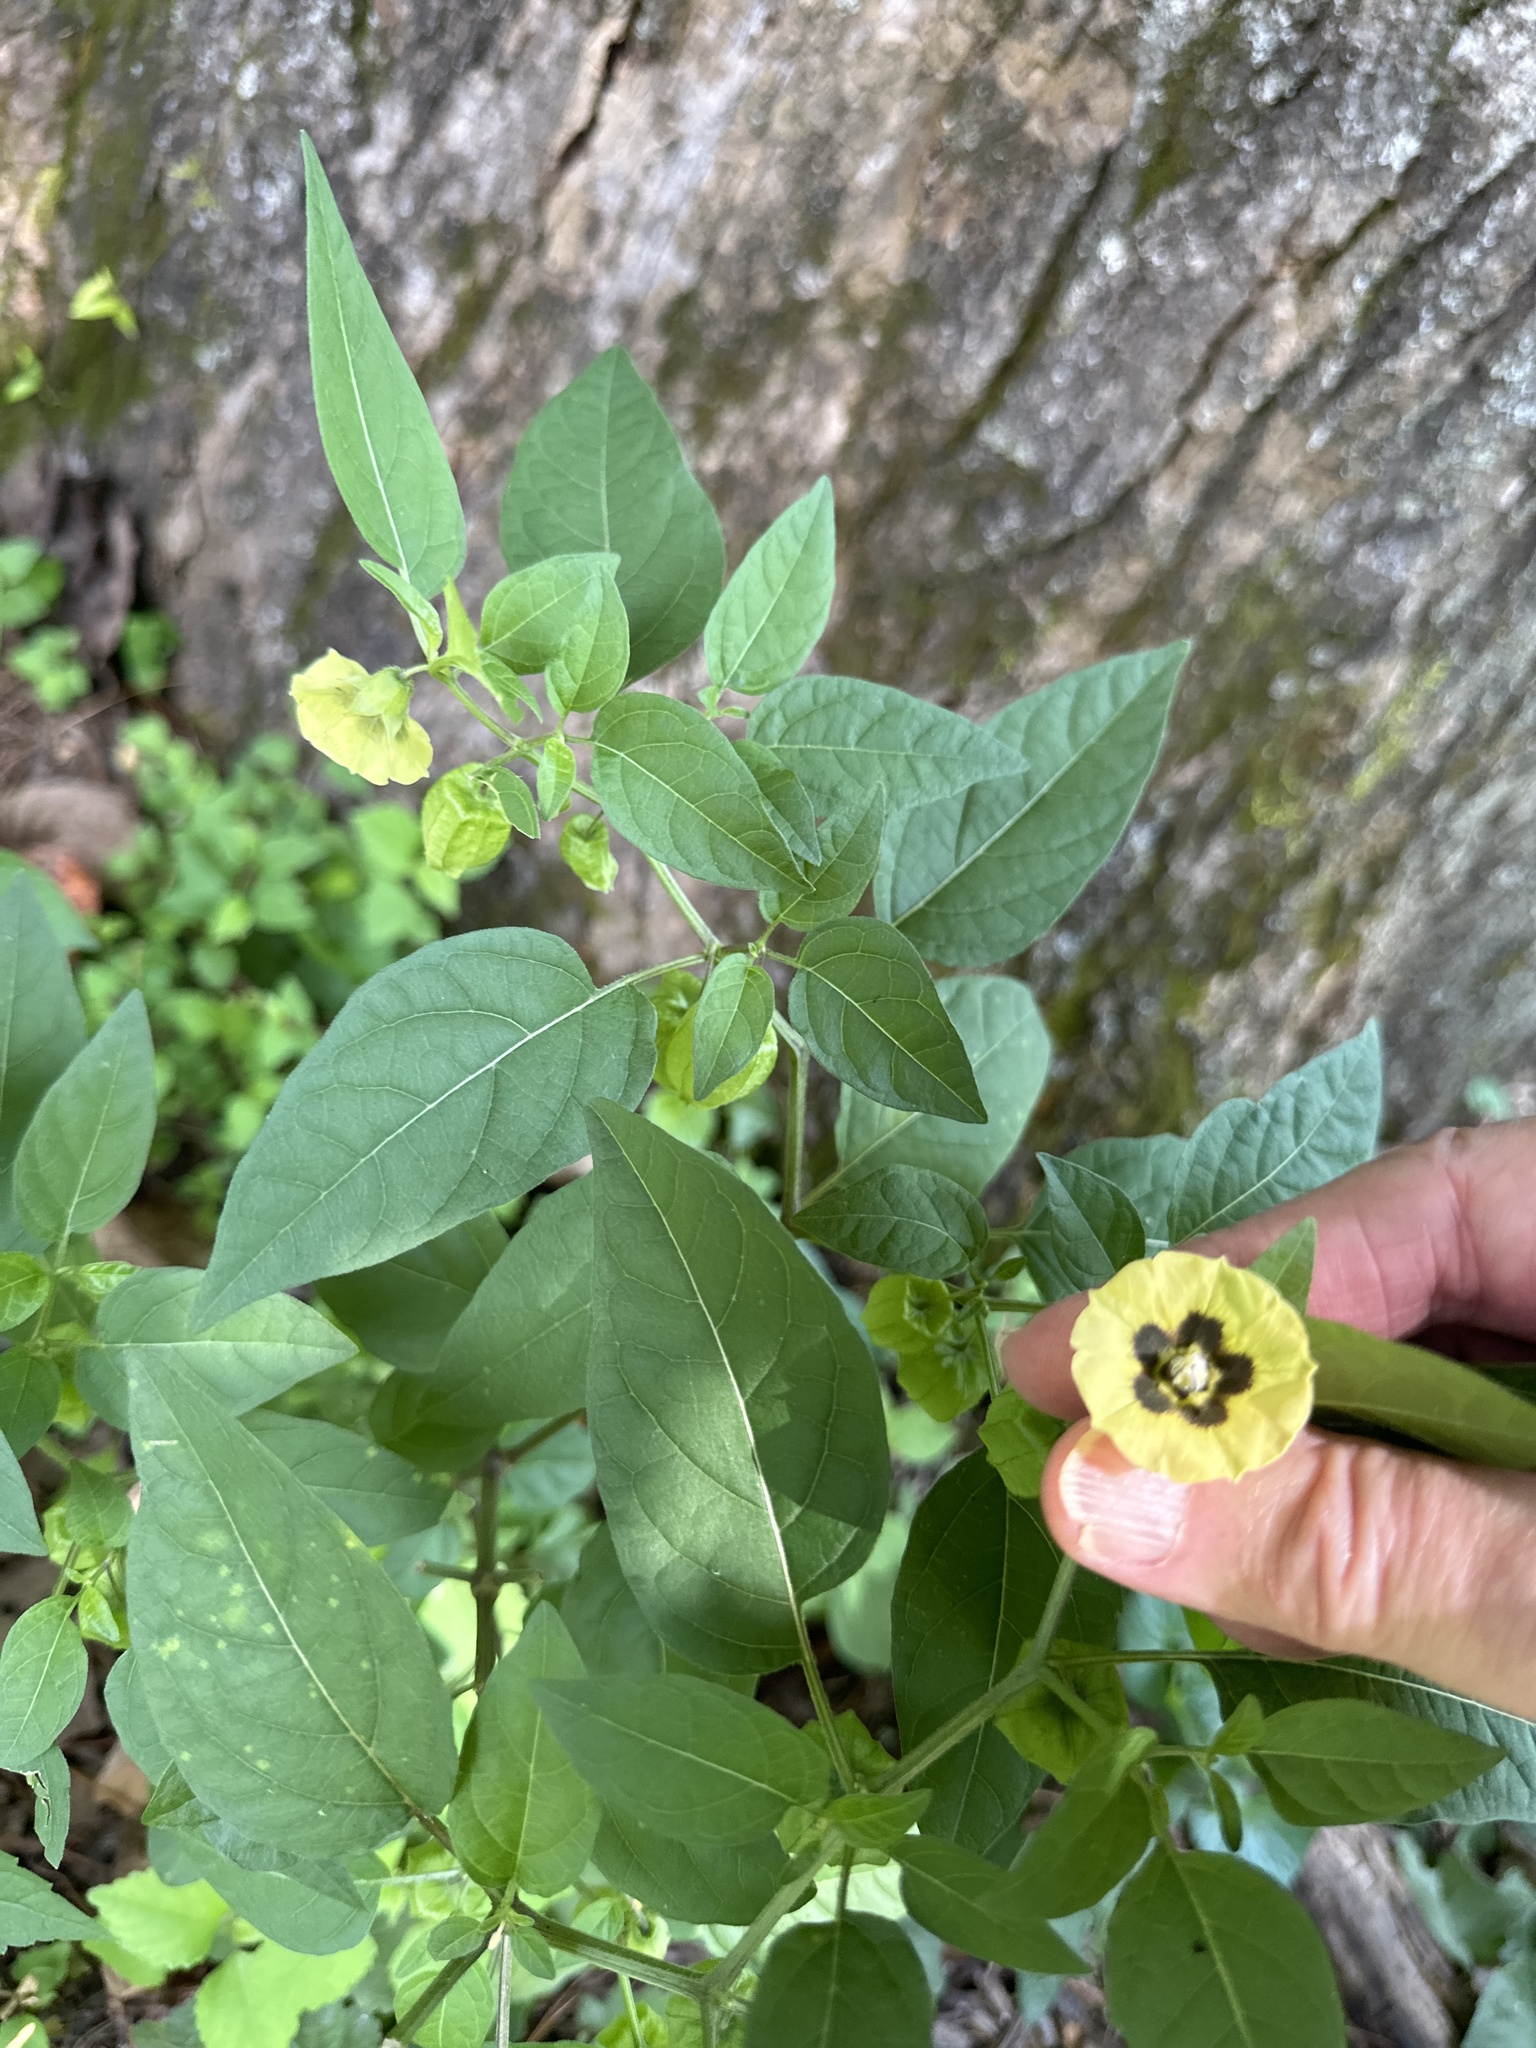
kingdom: Plantae
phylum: Tracheophyta
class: Magnoliopsida
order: Solanales
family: Solanaceae
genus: Physalis
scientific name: Physalis longifolia
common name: Common ground-cherry
